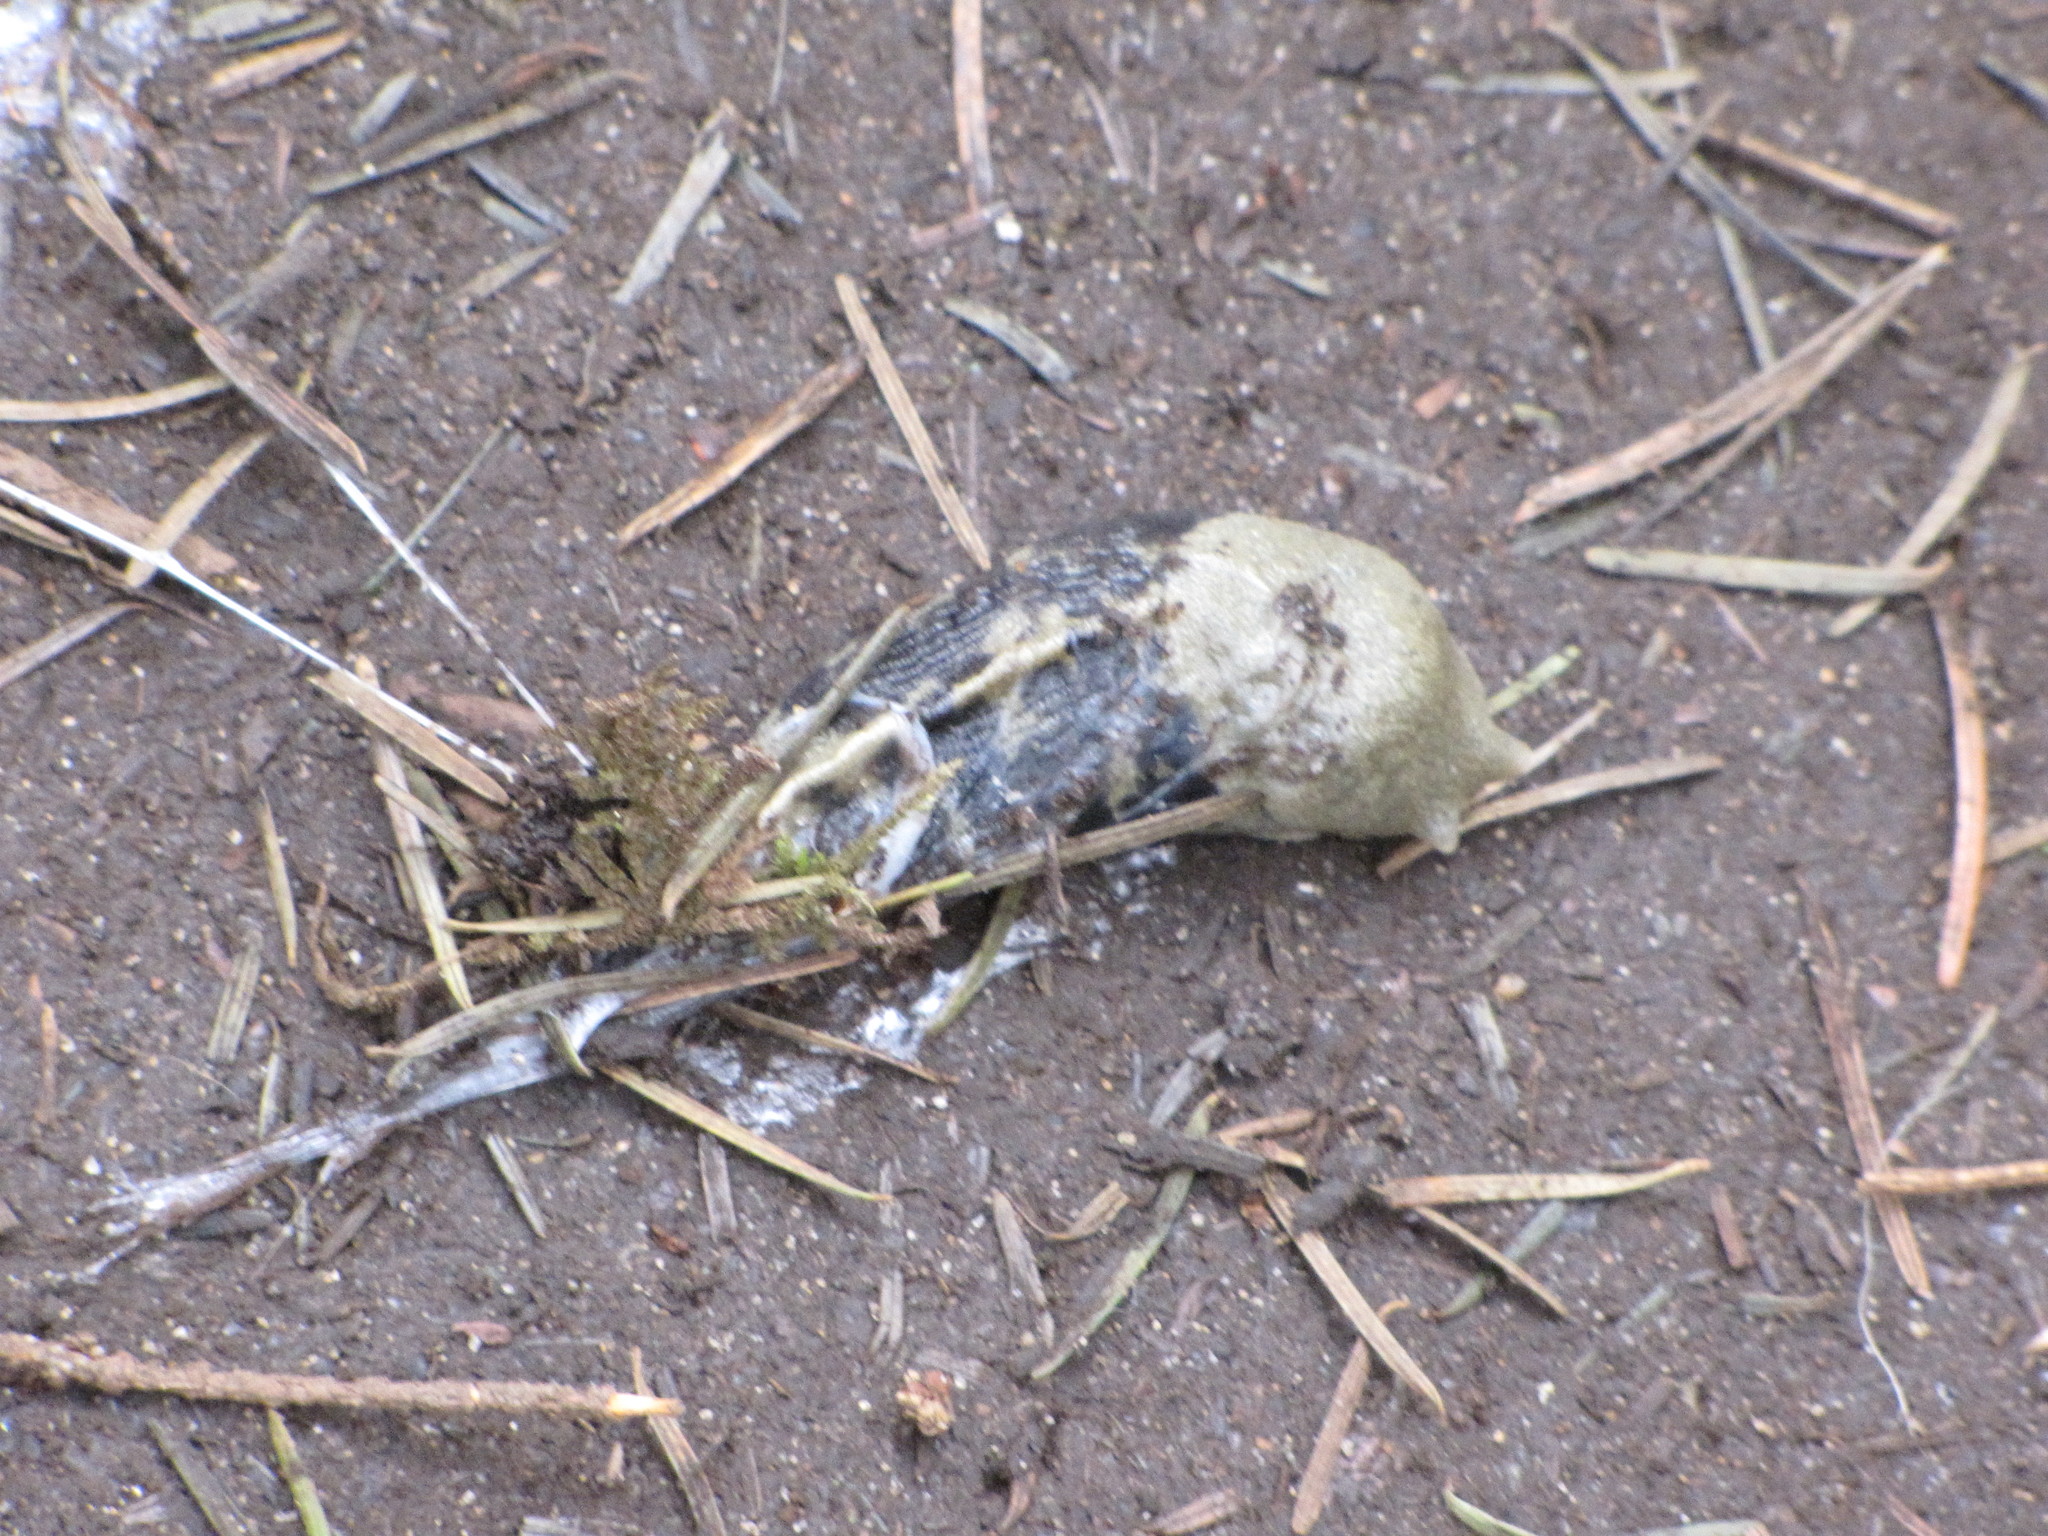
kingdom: Animalia
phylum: Mollusca
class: Gastropoda
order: Stylommatophora
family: Ariolimacidae
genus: Ariolimax
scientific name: Ariolimax columbianus
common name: Pacific banana slug
